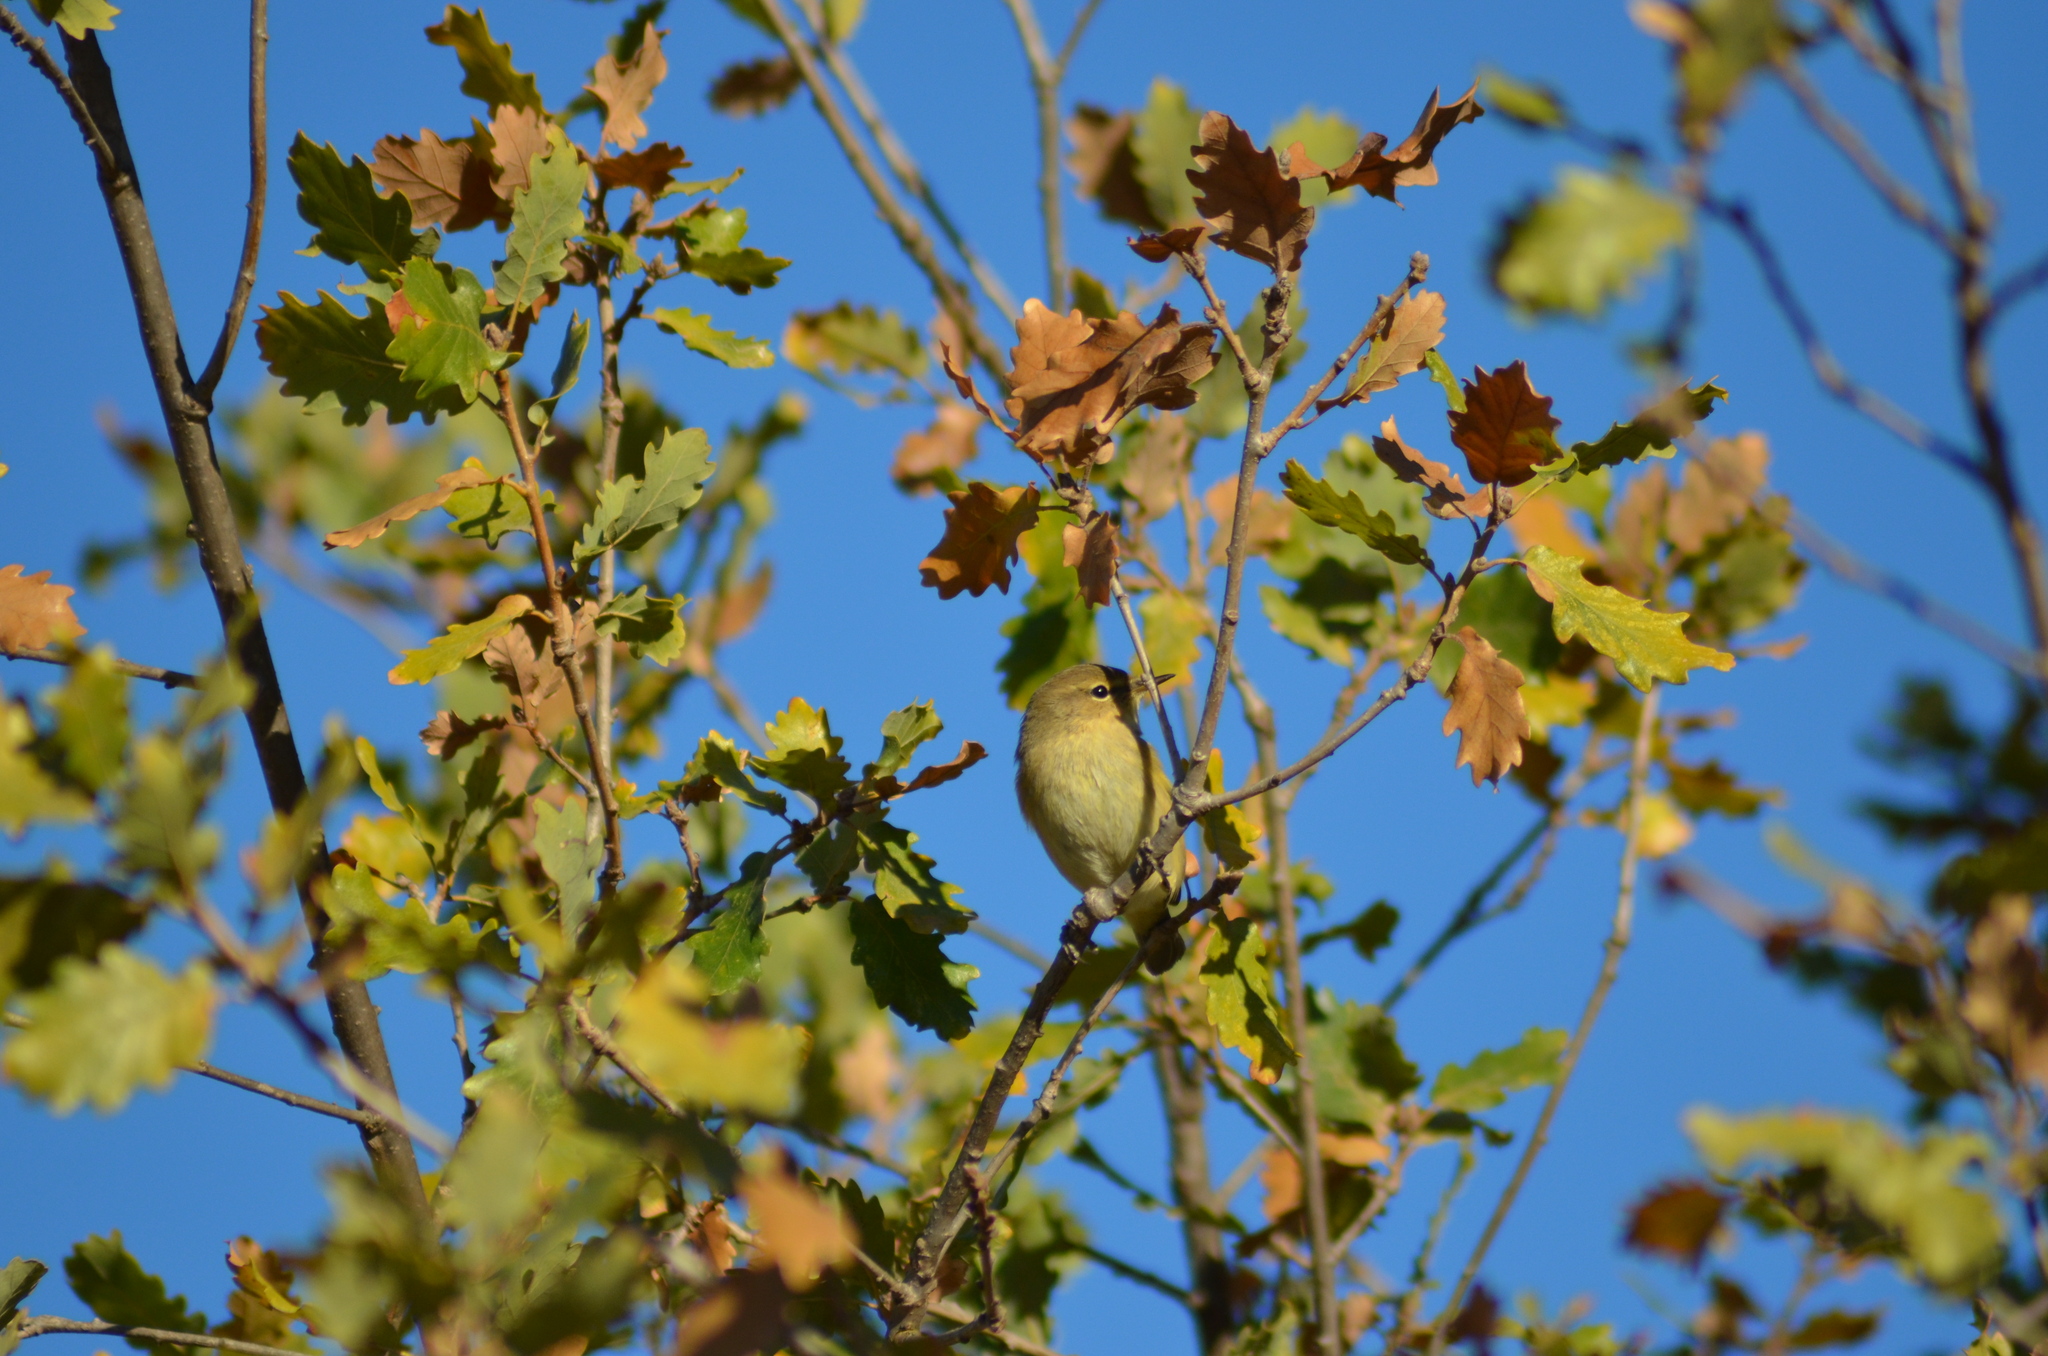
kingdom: Animalia
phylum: Chordata
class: Aves
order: Passeriformes
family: Phylloscopidae
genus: Phylloscopus
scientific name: Phylloscopus collybita
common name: Common chiffchaff
